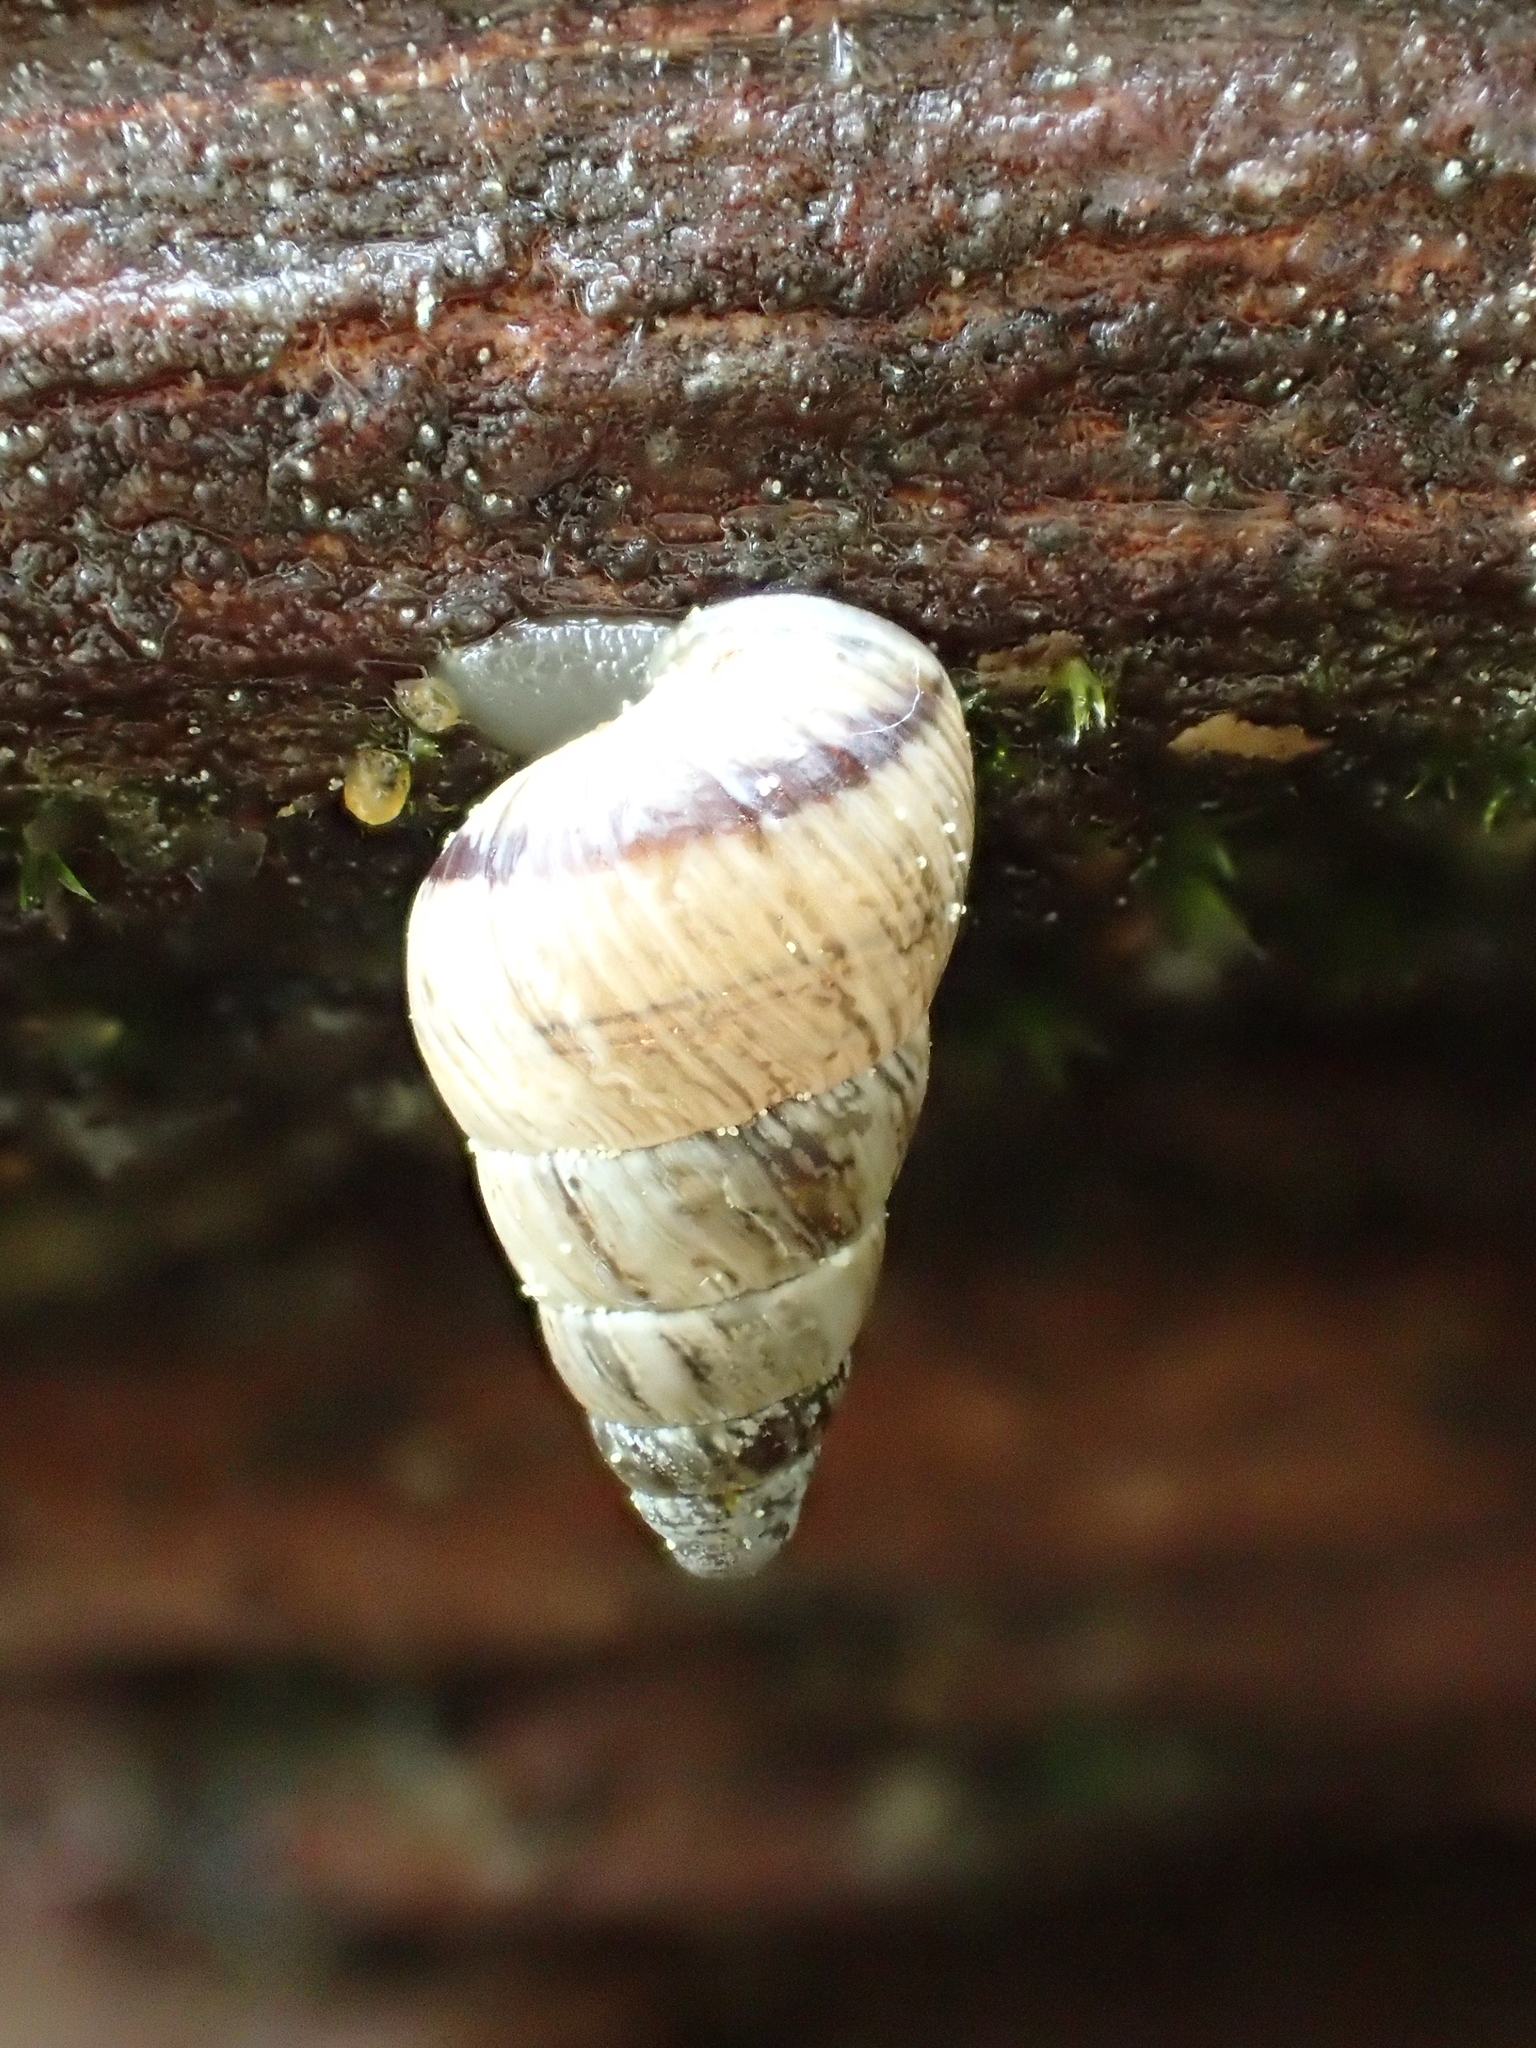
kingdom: Animalia
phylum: Mollusca
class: Gastropoda
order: Stylommatophora
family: Geomitridae
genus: Cochlicella
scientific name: Cochlicella barbara
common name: Potbellied helicellid
